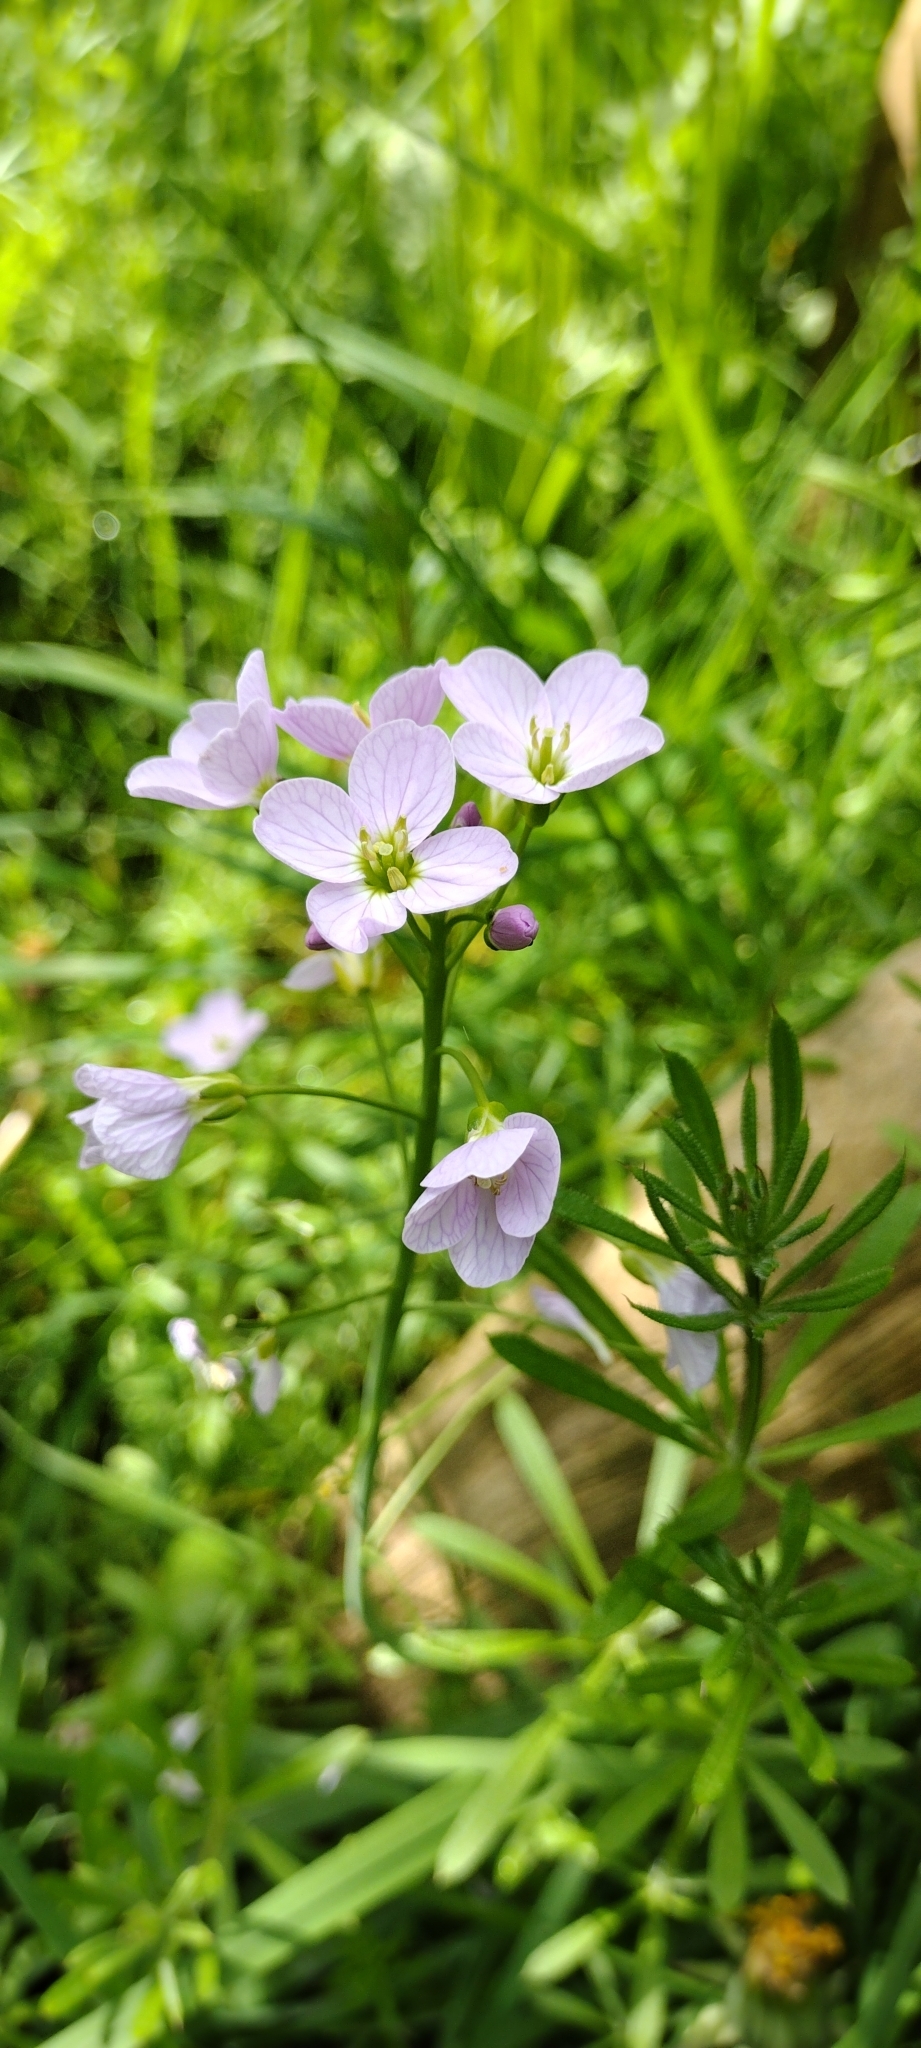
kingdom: Plantae
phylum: Tracheophyta
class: Magnoliopsida
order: Brassicales
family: Brassicaceae
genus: Cardamine
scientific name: Cardamine pratensis
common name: Cuckoo flower
